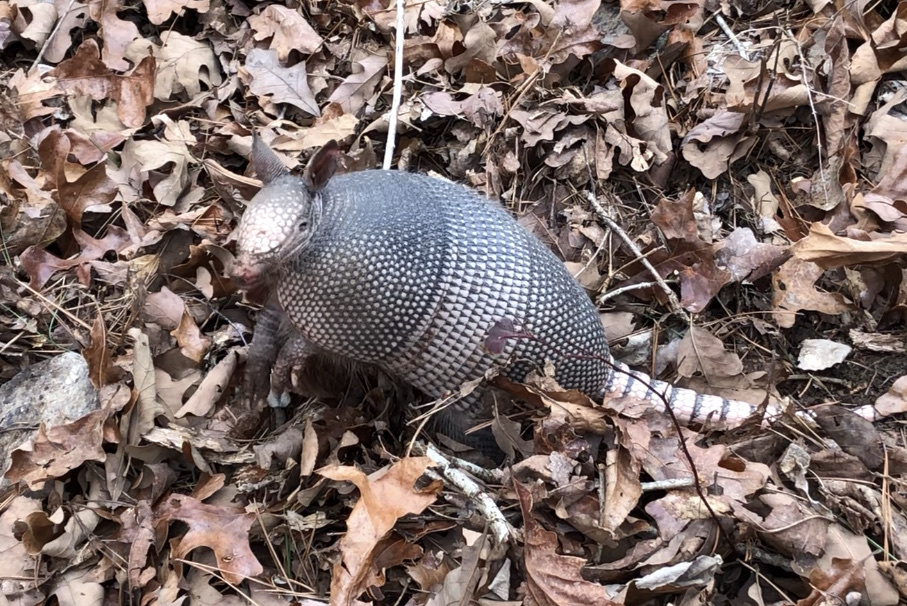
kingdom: Animalia
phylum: Chordata
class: Mammalia
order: Cingulata
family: Dasypodidae
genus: Dasypus
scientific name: Dasypus novemcinctus
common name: Nine-banded armadillo
